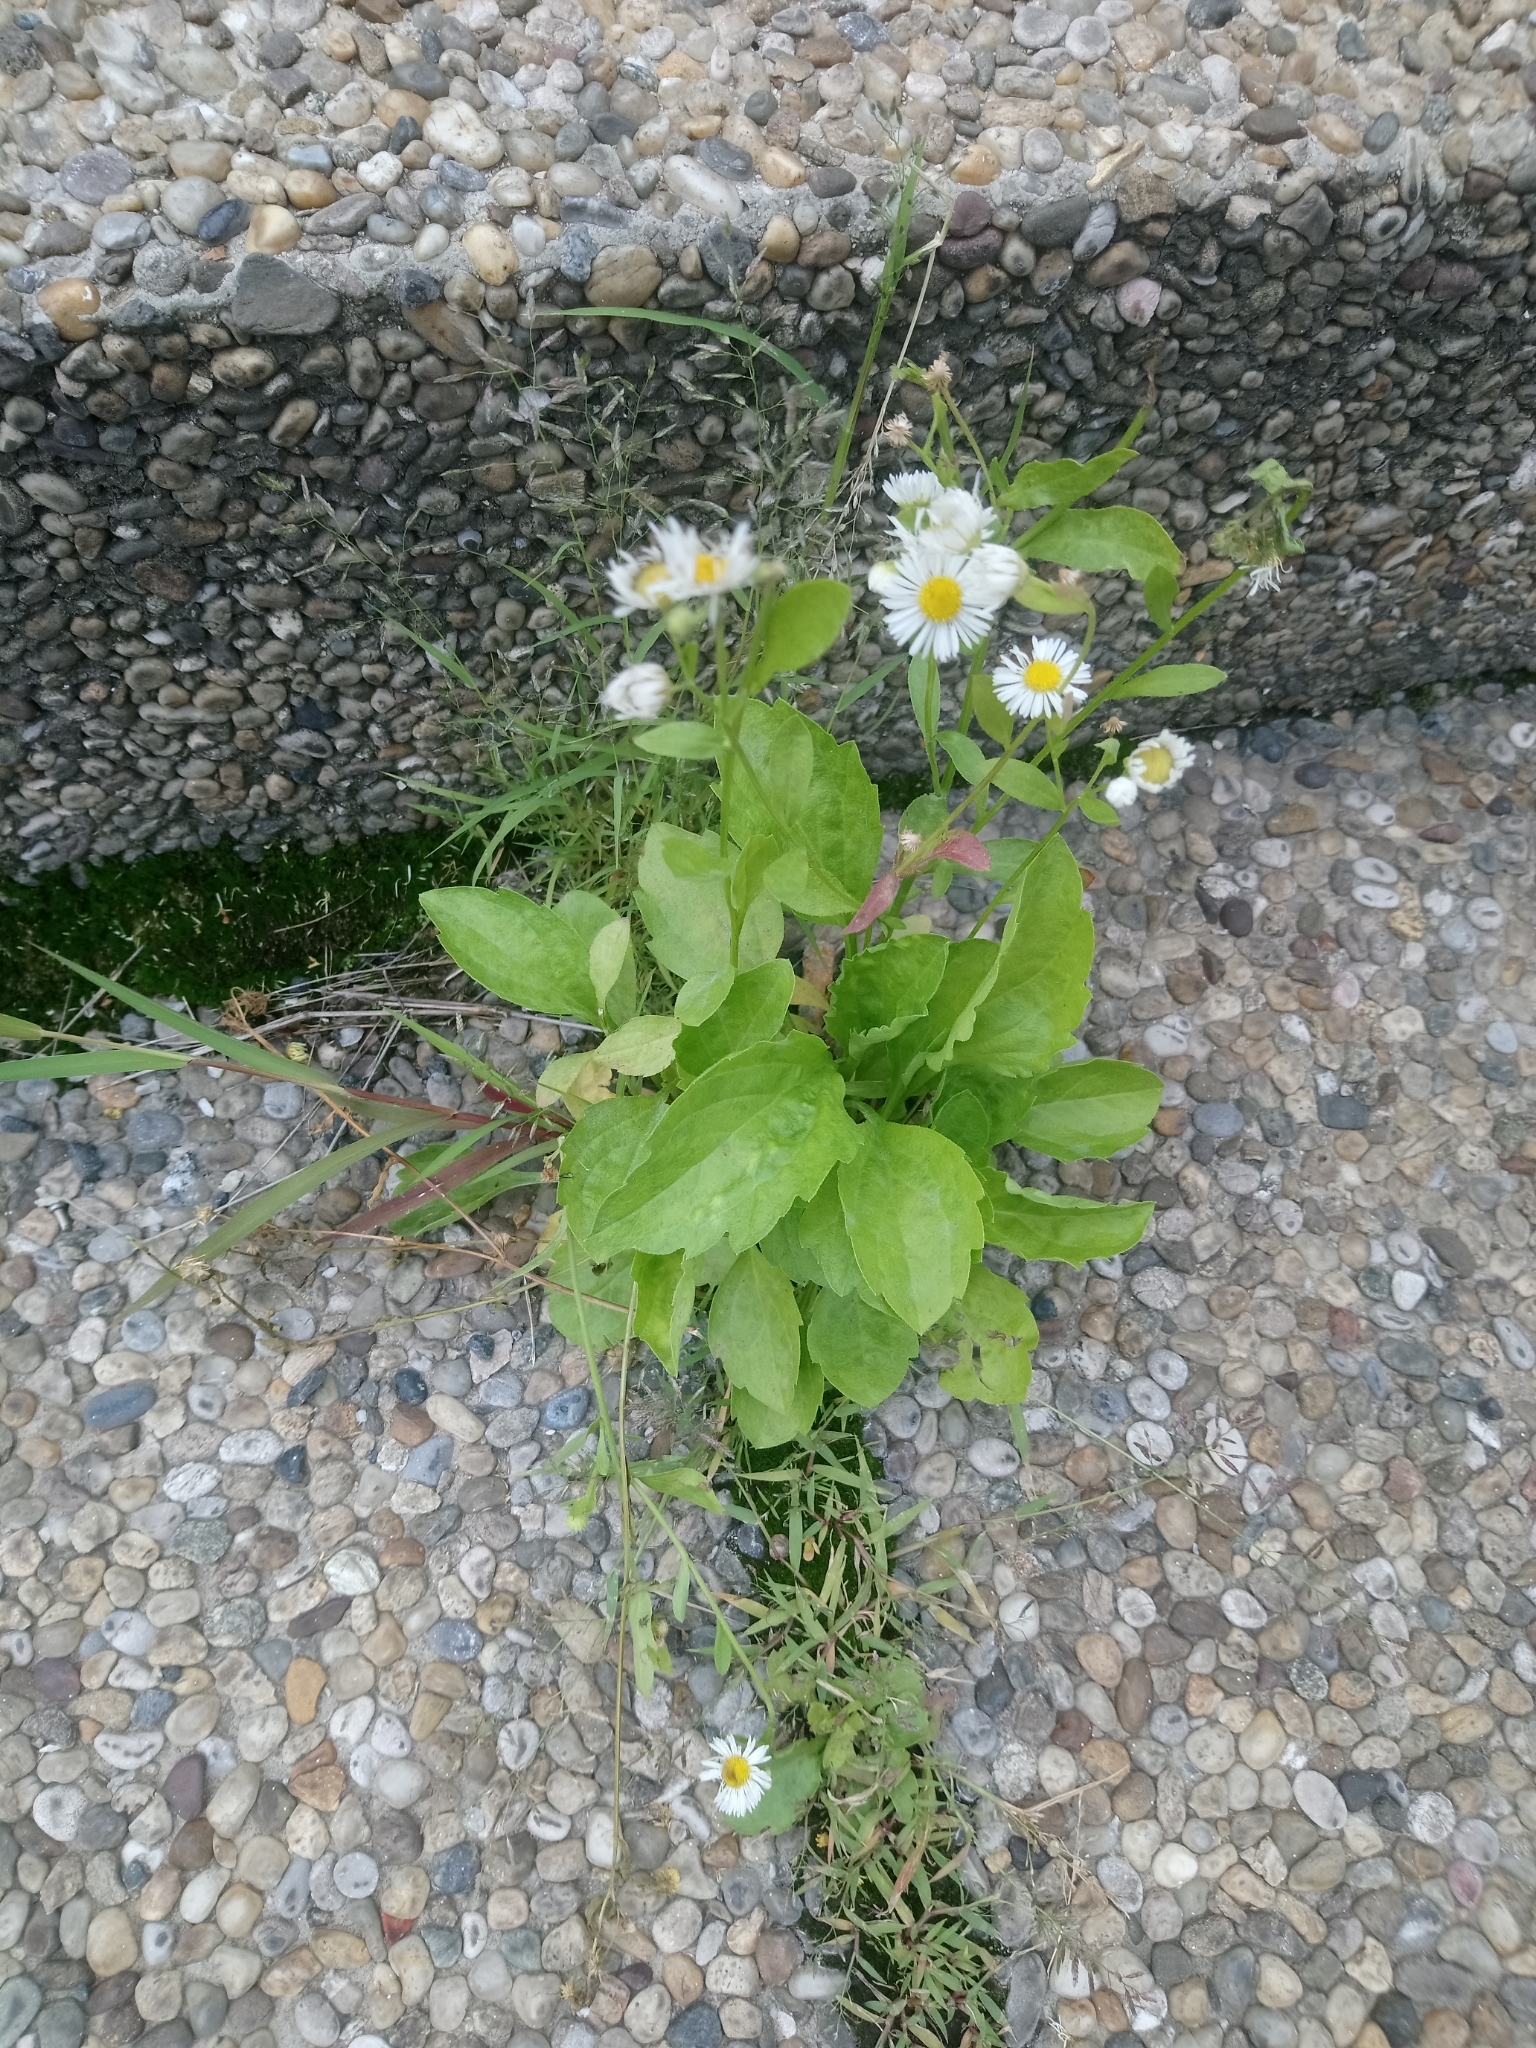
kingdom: Plantae
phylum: Tracheophyta
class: Magnoliopsida
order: Asterales
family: Asteraceae
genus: Erigeron
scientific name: Erigeron annuus
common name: Tall fleabane
